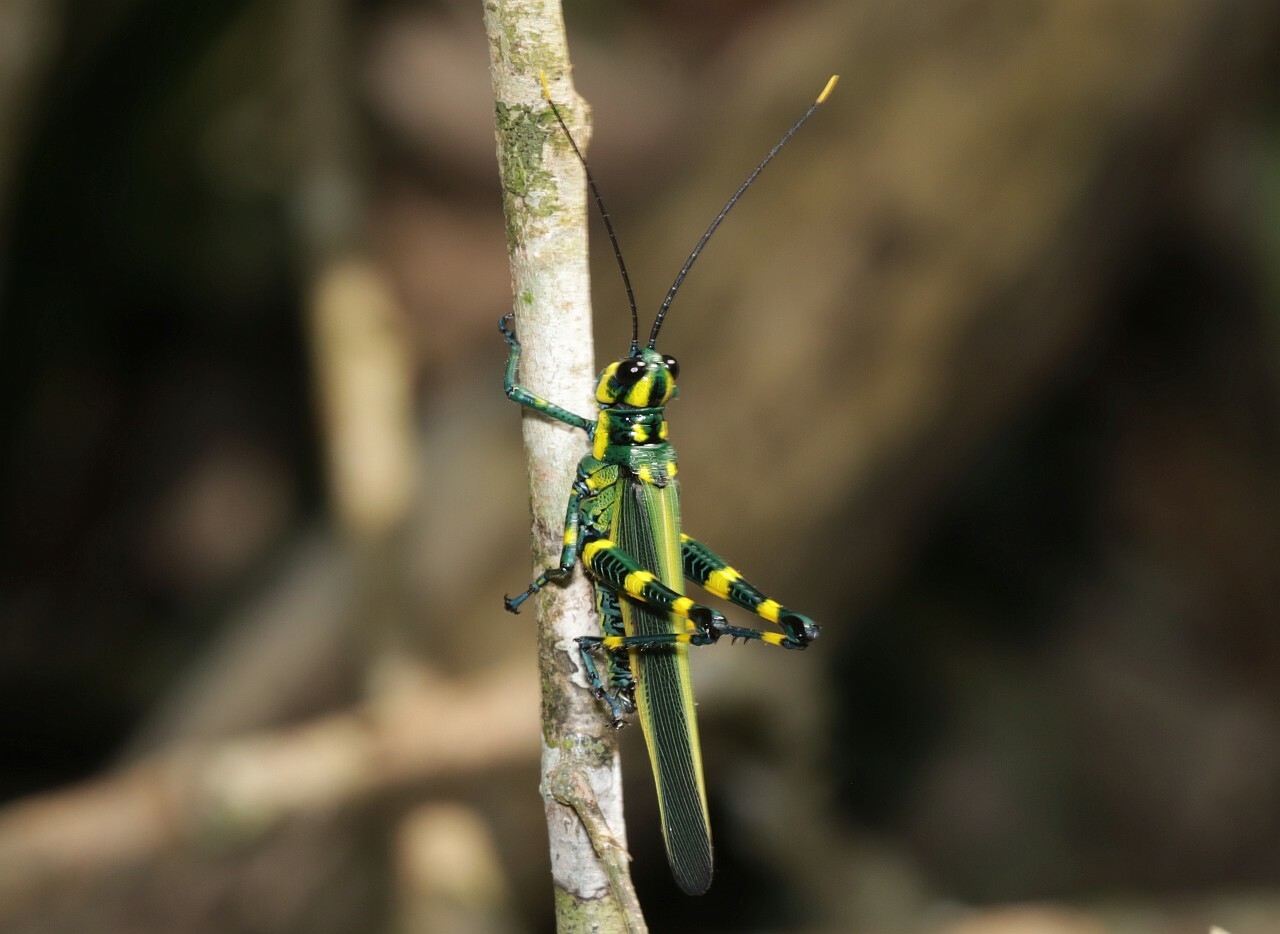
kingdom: Animalia
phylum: Arthropoda
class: Insecta
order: Orthoptera
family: Romaleidae
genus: Chromacris
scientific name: Chromacris peruviana
